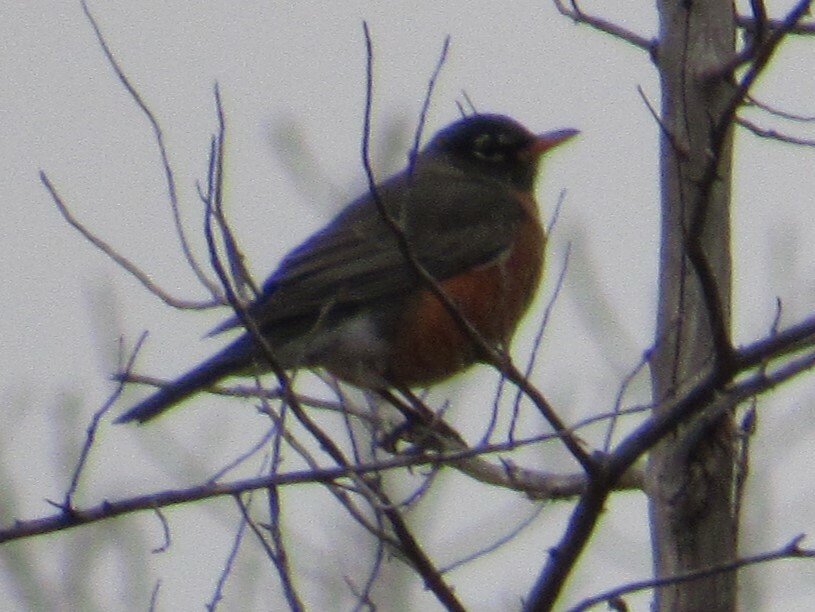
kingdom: Animalia
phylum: Chordata
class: Aves
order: Passeriformes
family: Turdidae
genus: Turdus
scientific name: Turdus migratorius
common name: American robin
